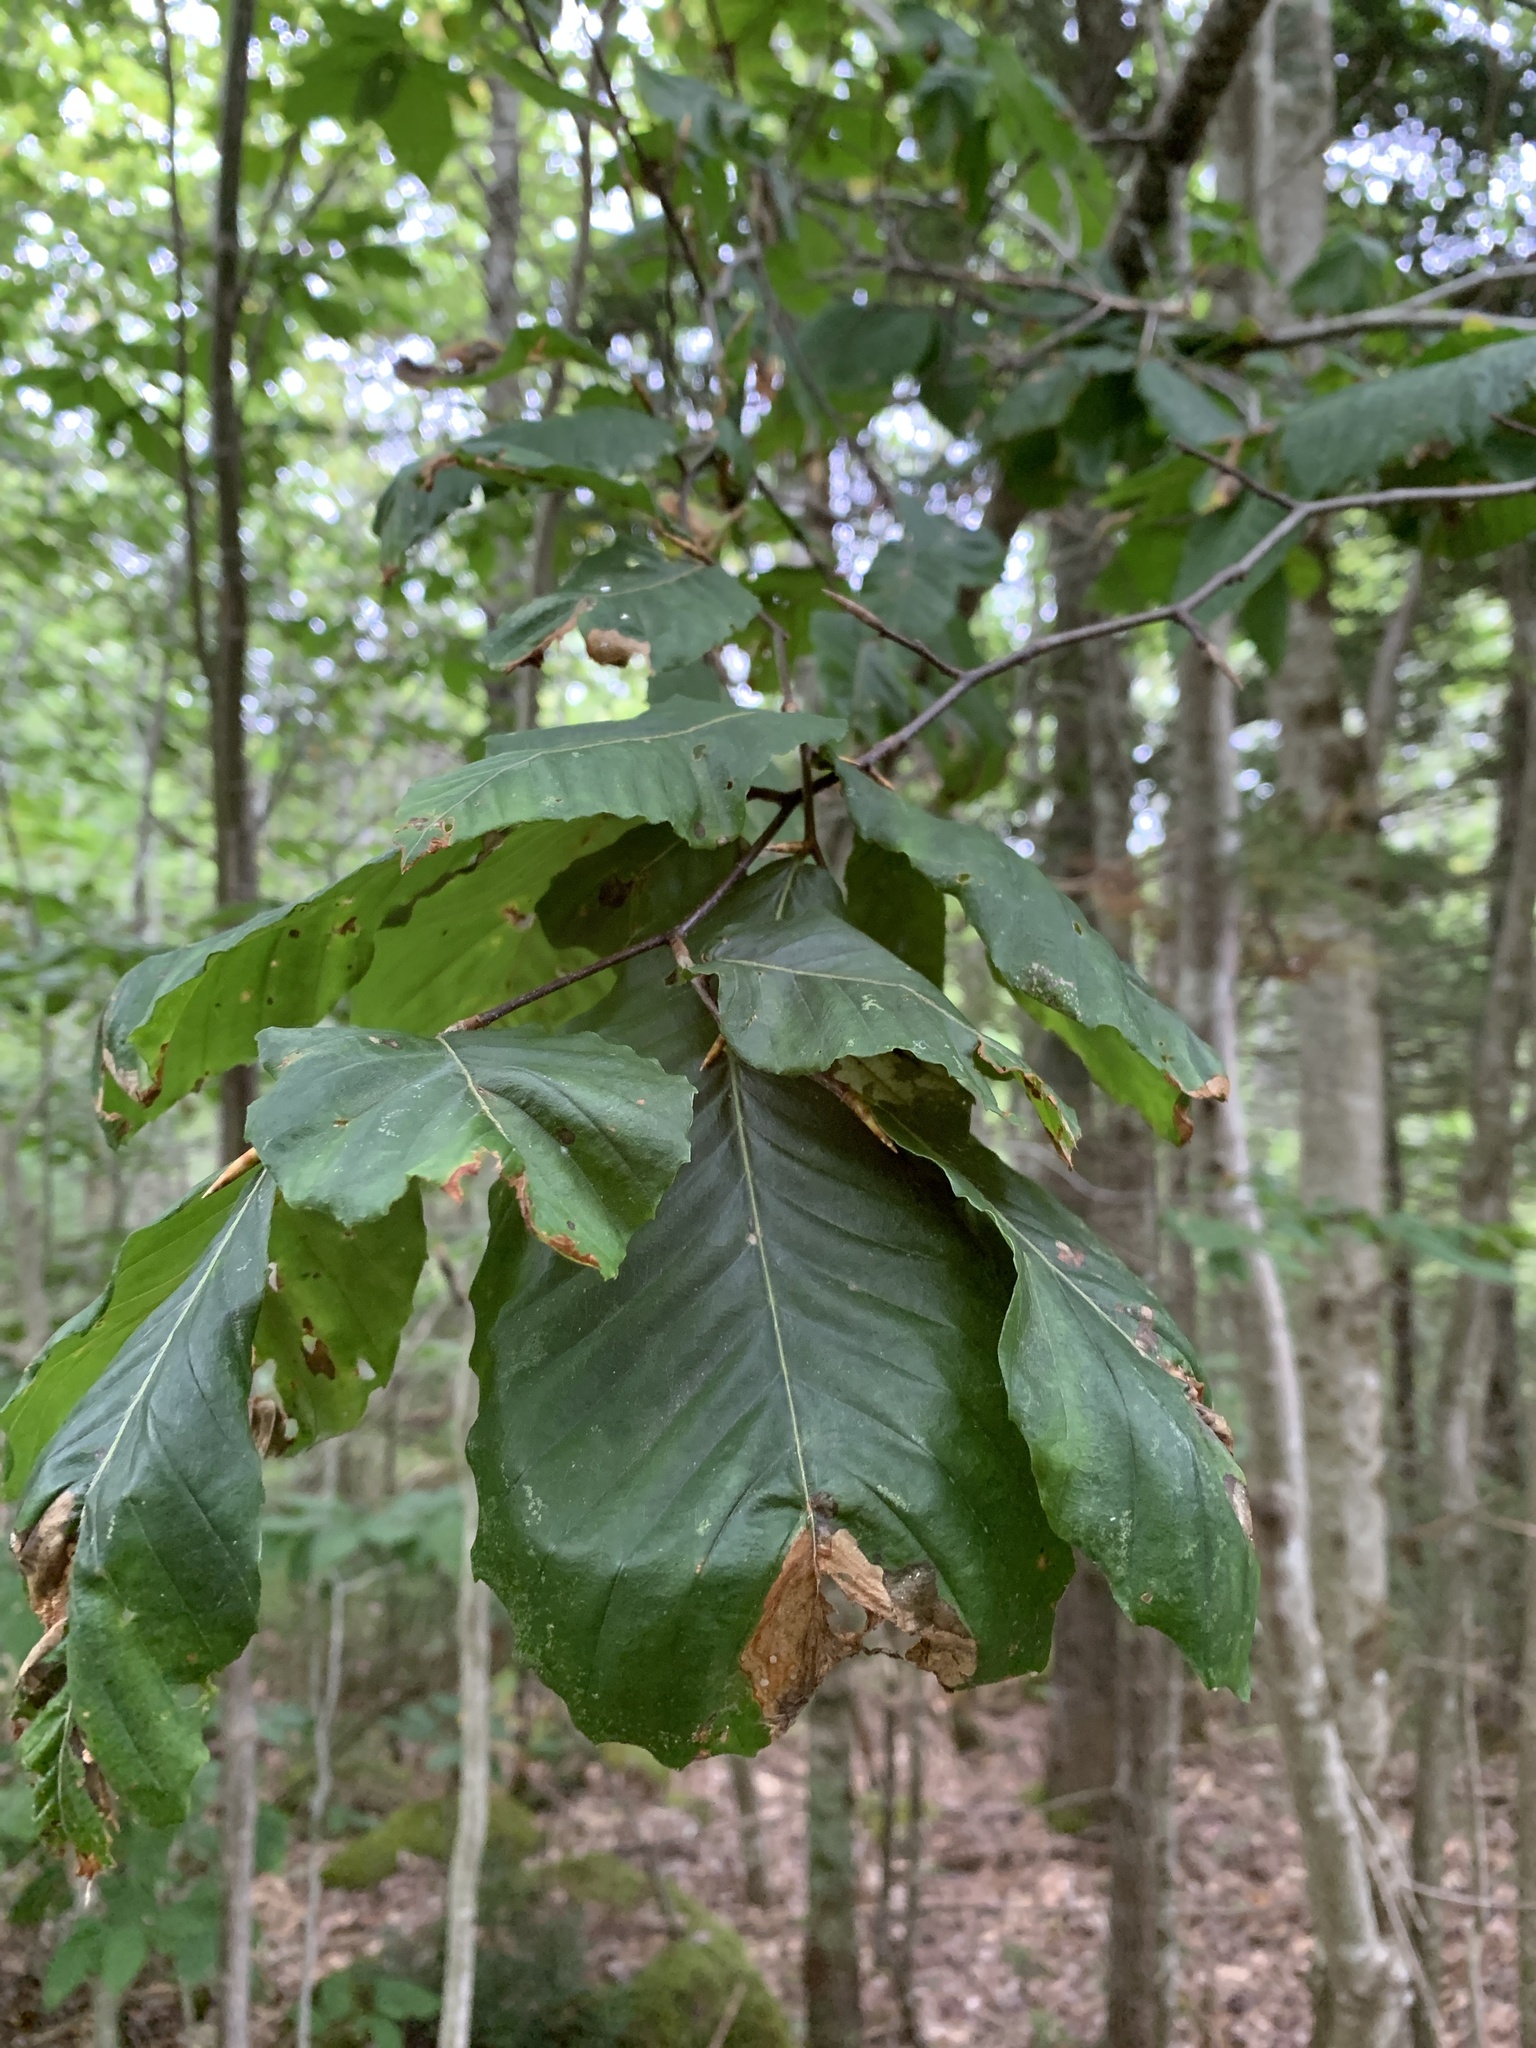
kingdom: Animalia
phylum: Arthropoda
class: Insecta
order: Coleoptera
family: Curculionidae
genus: Orchestes
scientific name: Orchestes fagi
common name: Beech leaf miner
